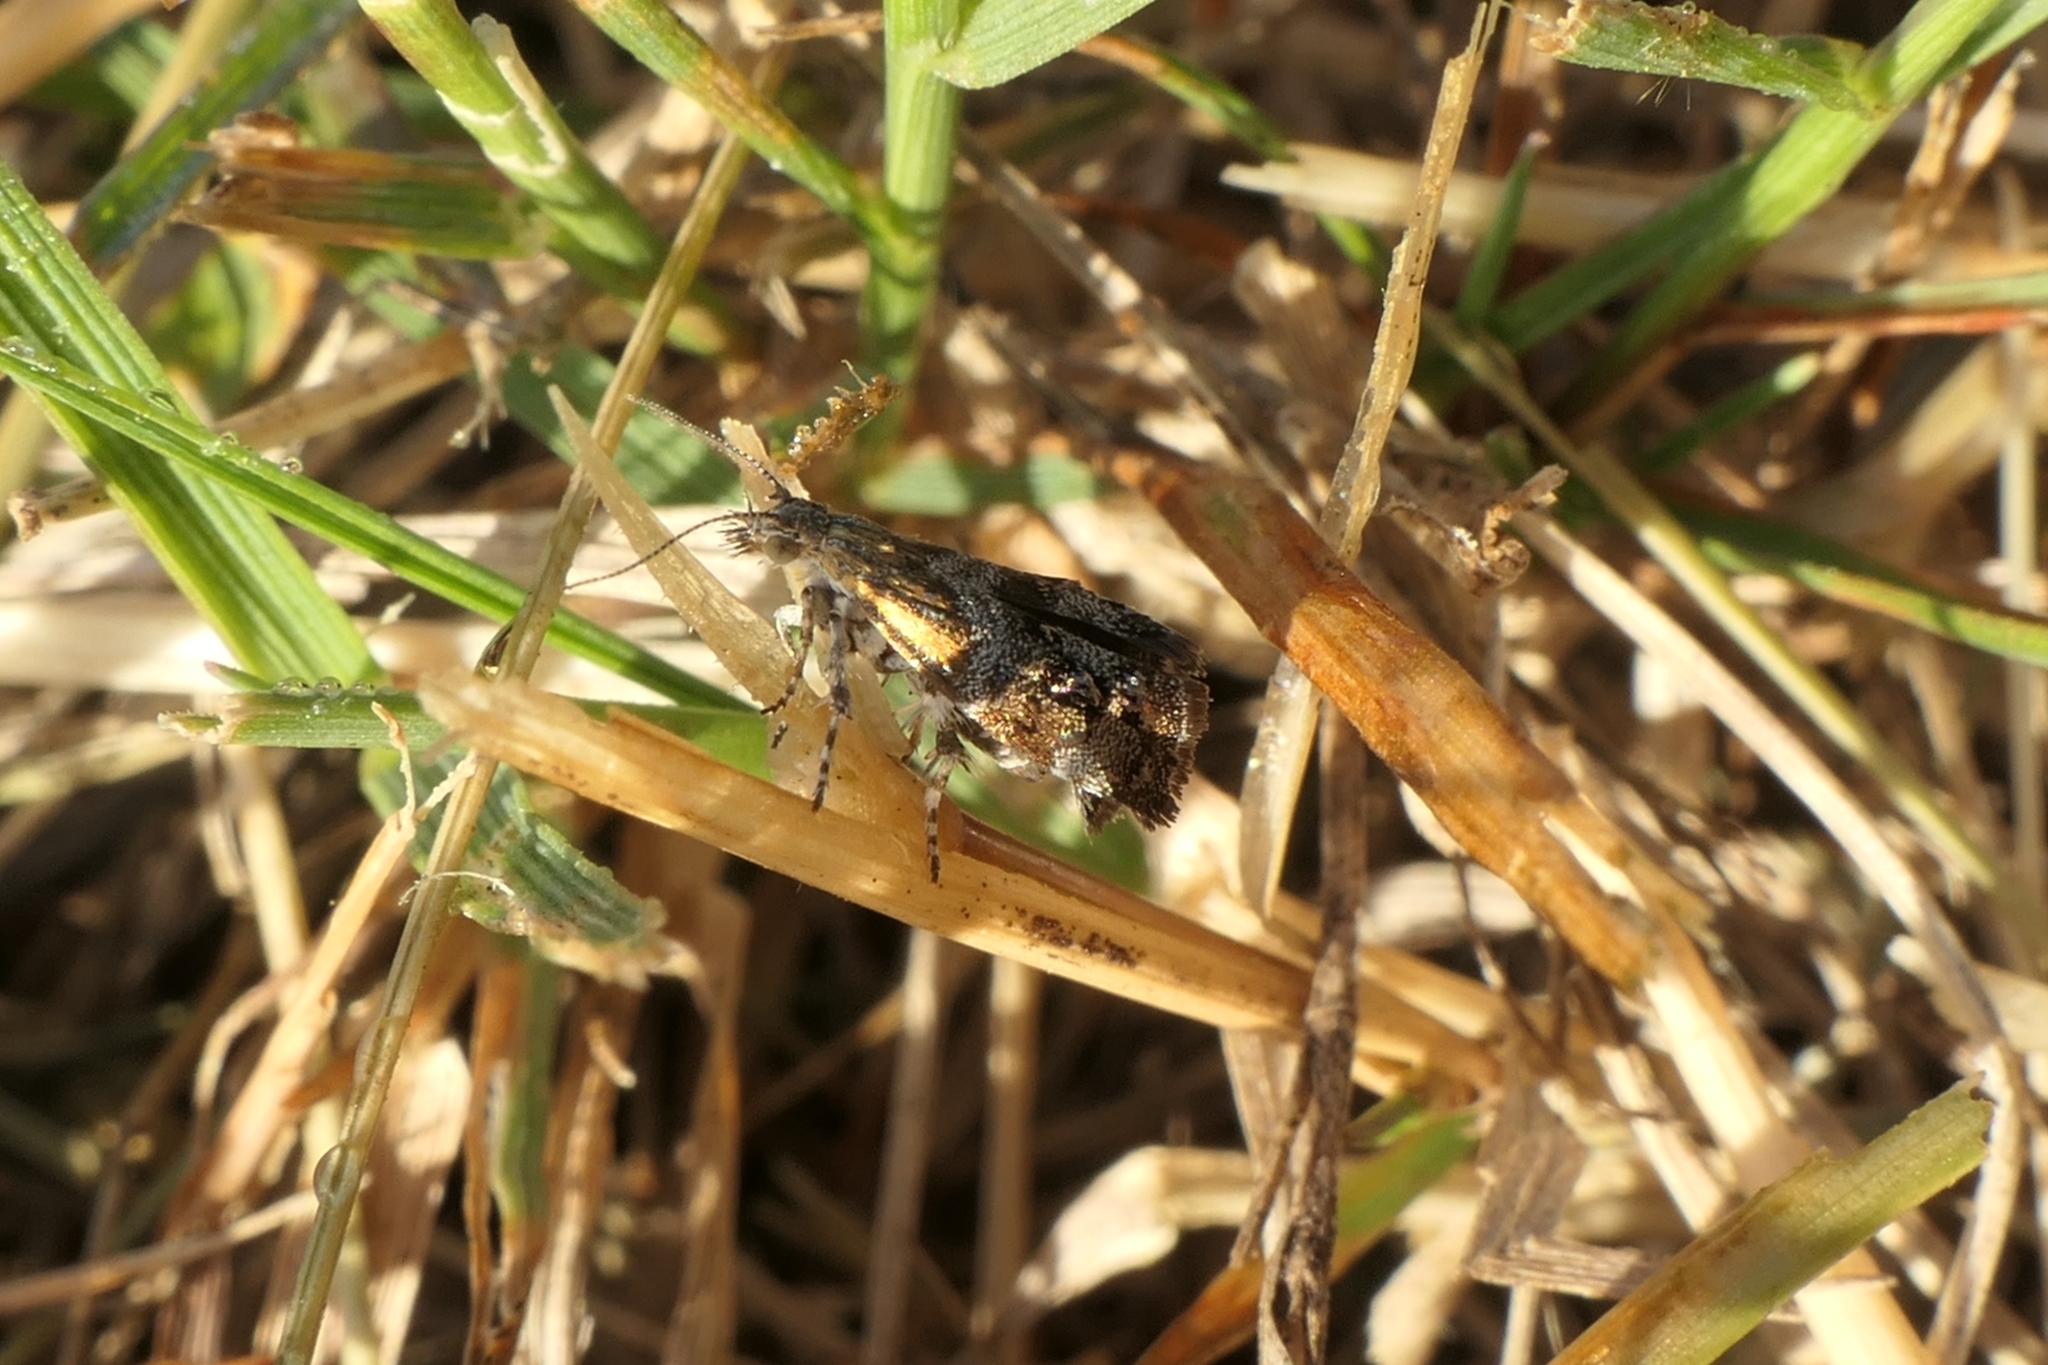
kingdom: Animalia
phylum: Arthropoda
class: Insecta
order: Lepidoptera
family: Choreutidae
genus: Tebenna
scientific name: Tebenna micalis
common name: Vagrant twitcher
